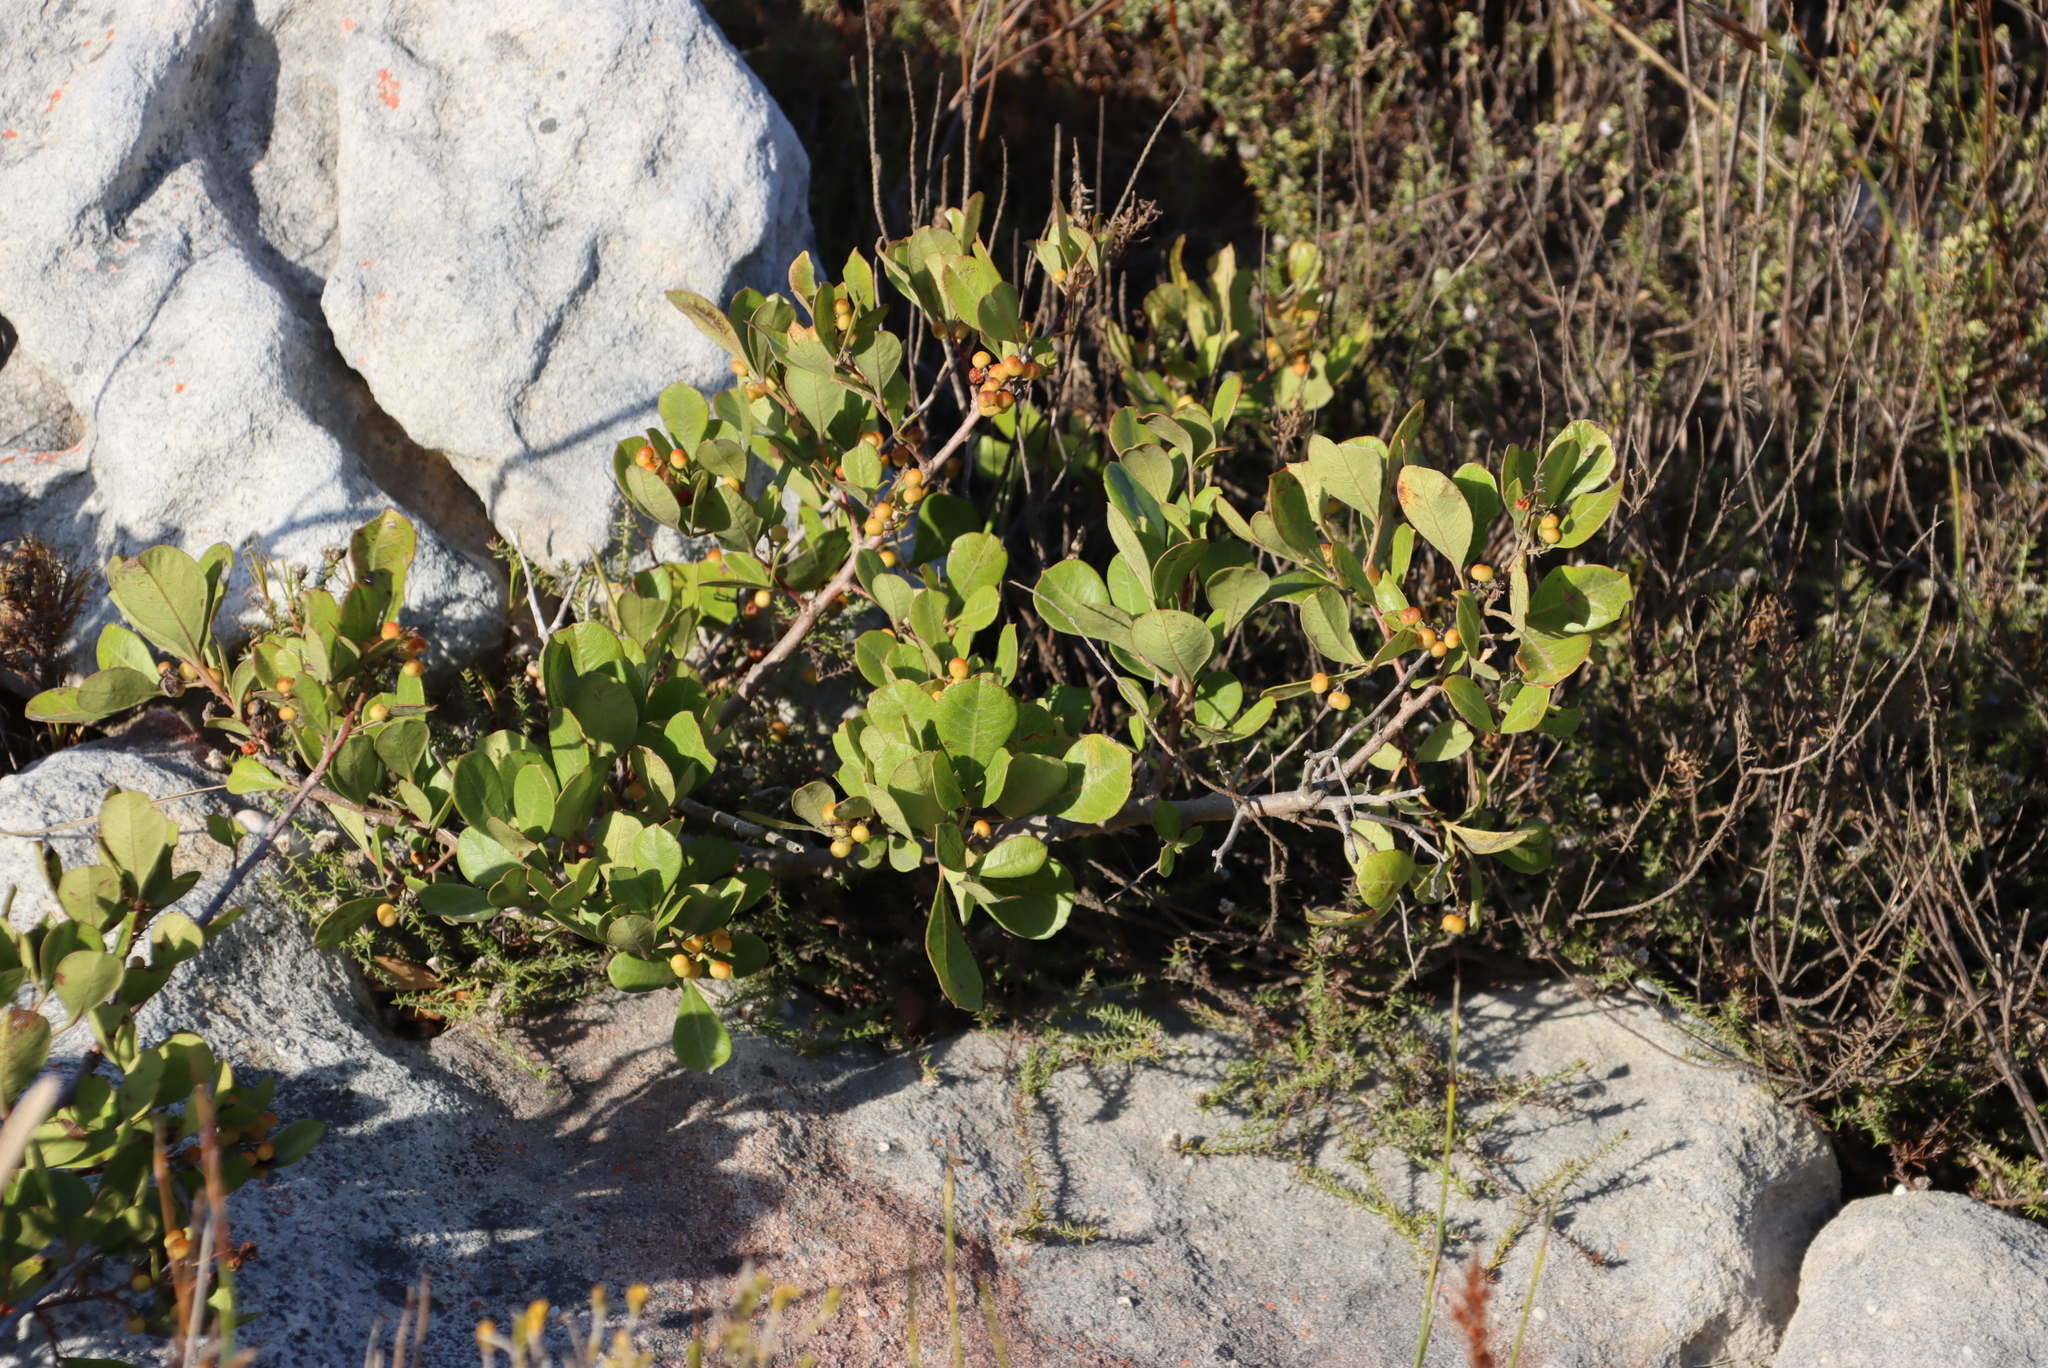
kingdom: Plantae
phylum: Tracheophyta
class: Magnoliopsida
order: Sapindales
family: Anacardiaceae
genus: Searsia
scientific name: Searsia laevigata
